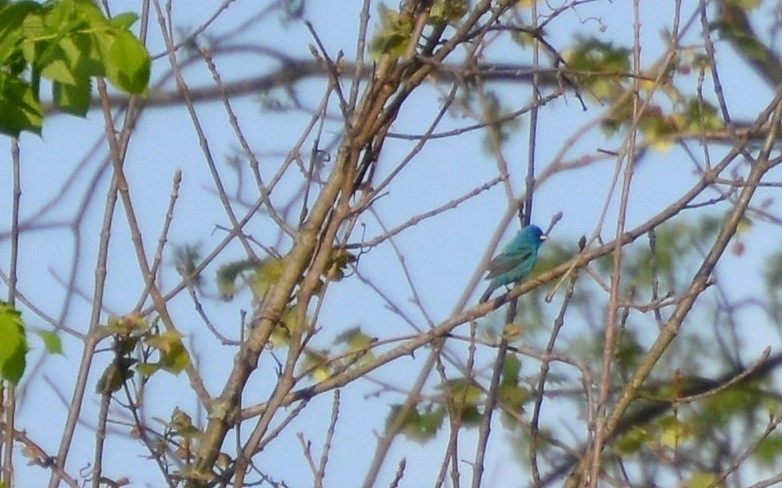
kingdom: Animalia
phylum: Chordata
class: Aves
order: Passeriformes
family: Cardinalidae
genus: Passerina
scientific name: Passerina cyanea
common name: Indigo bunting
